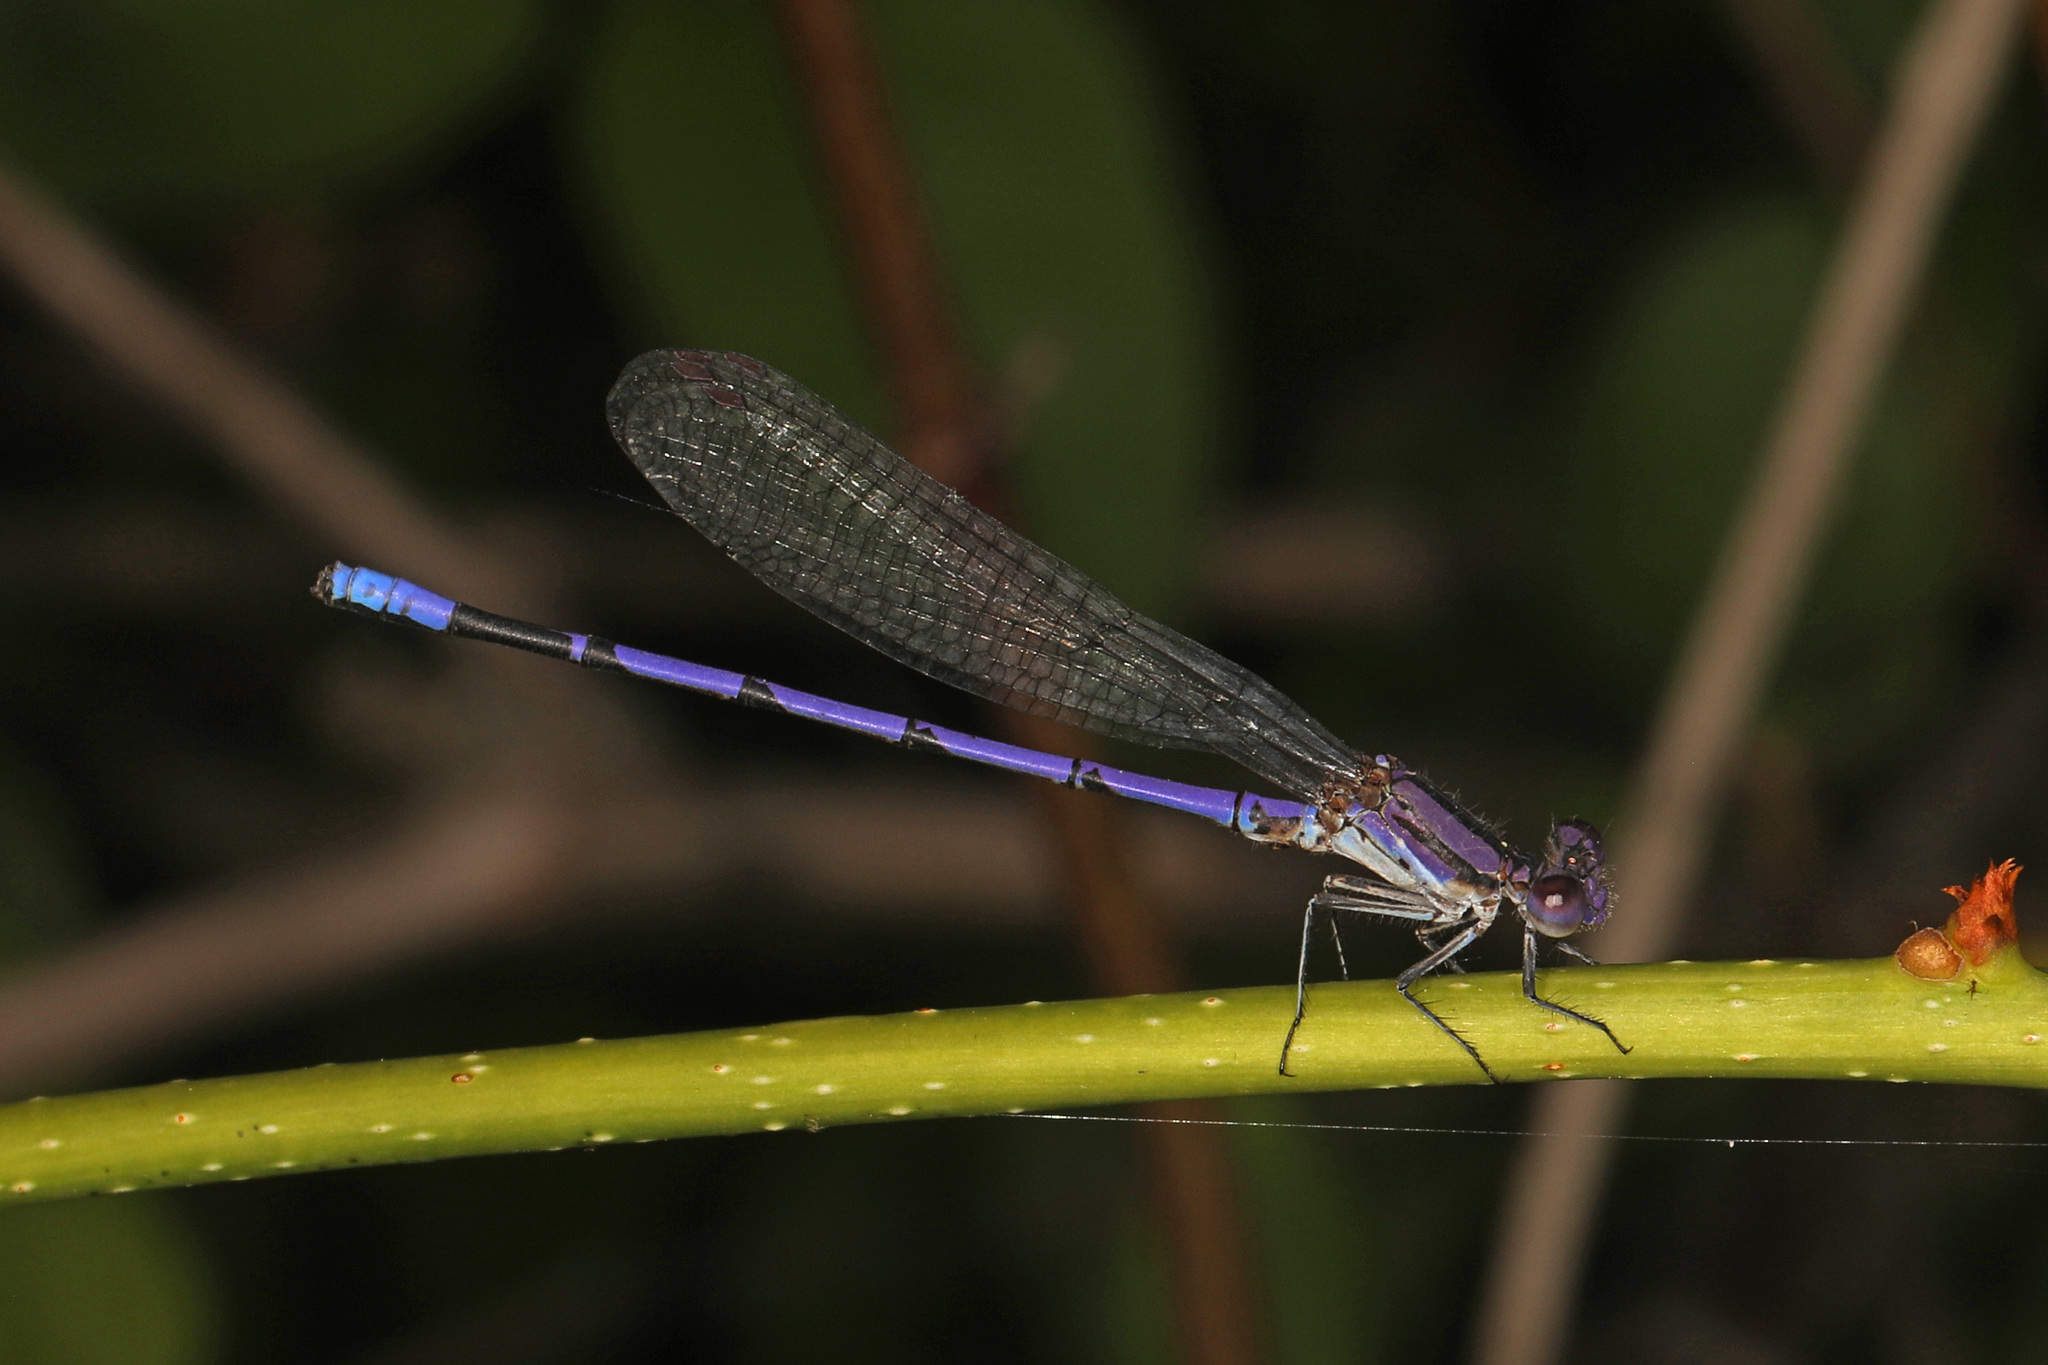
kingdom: Animalia
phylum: Arthropoda
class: Insecta
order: Odonata
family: Coenagrionidae
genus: Argia
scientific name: Argia fumipennis
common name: Variable dancer
